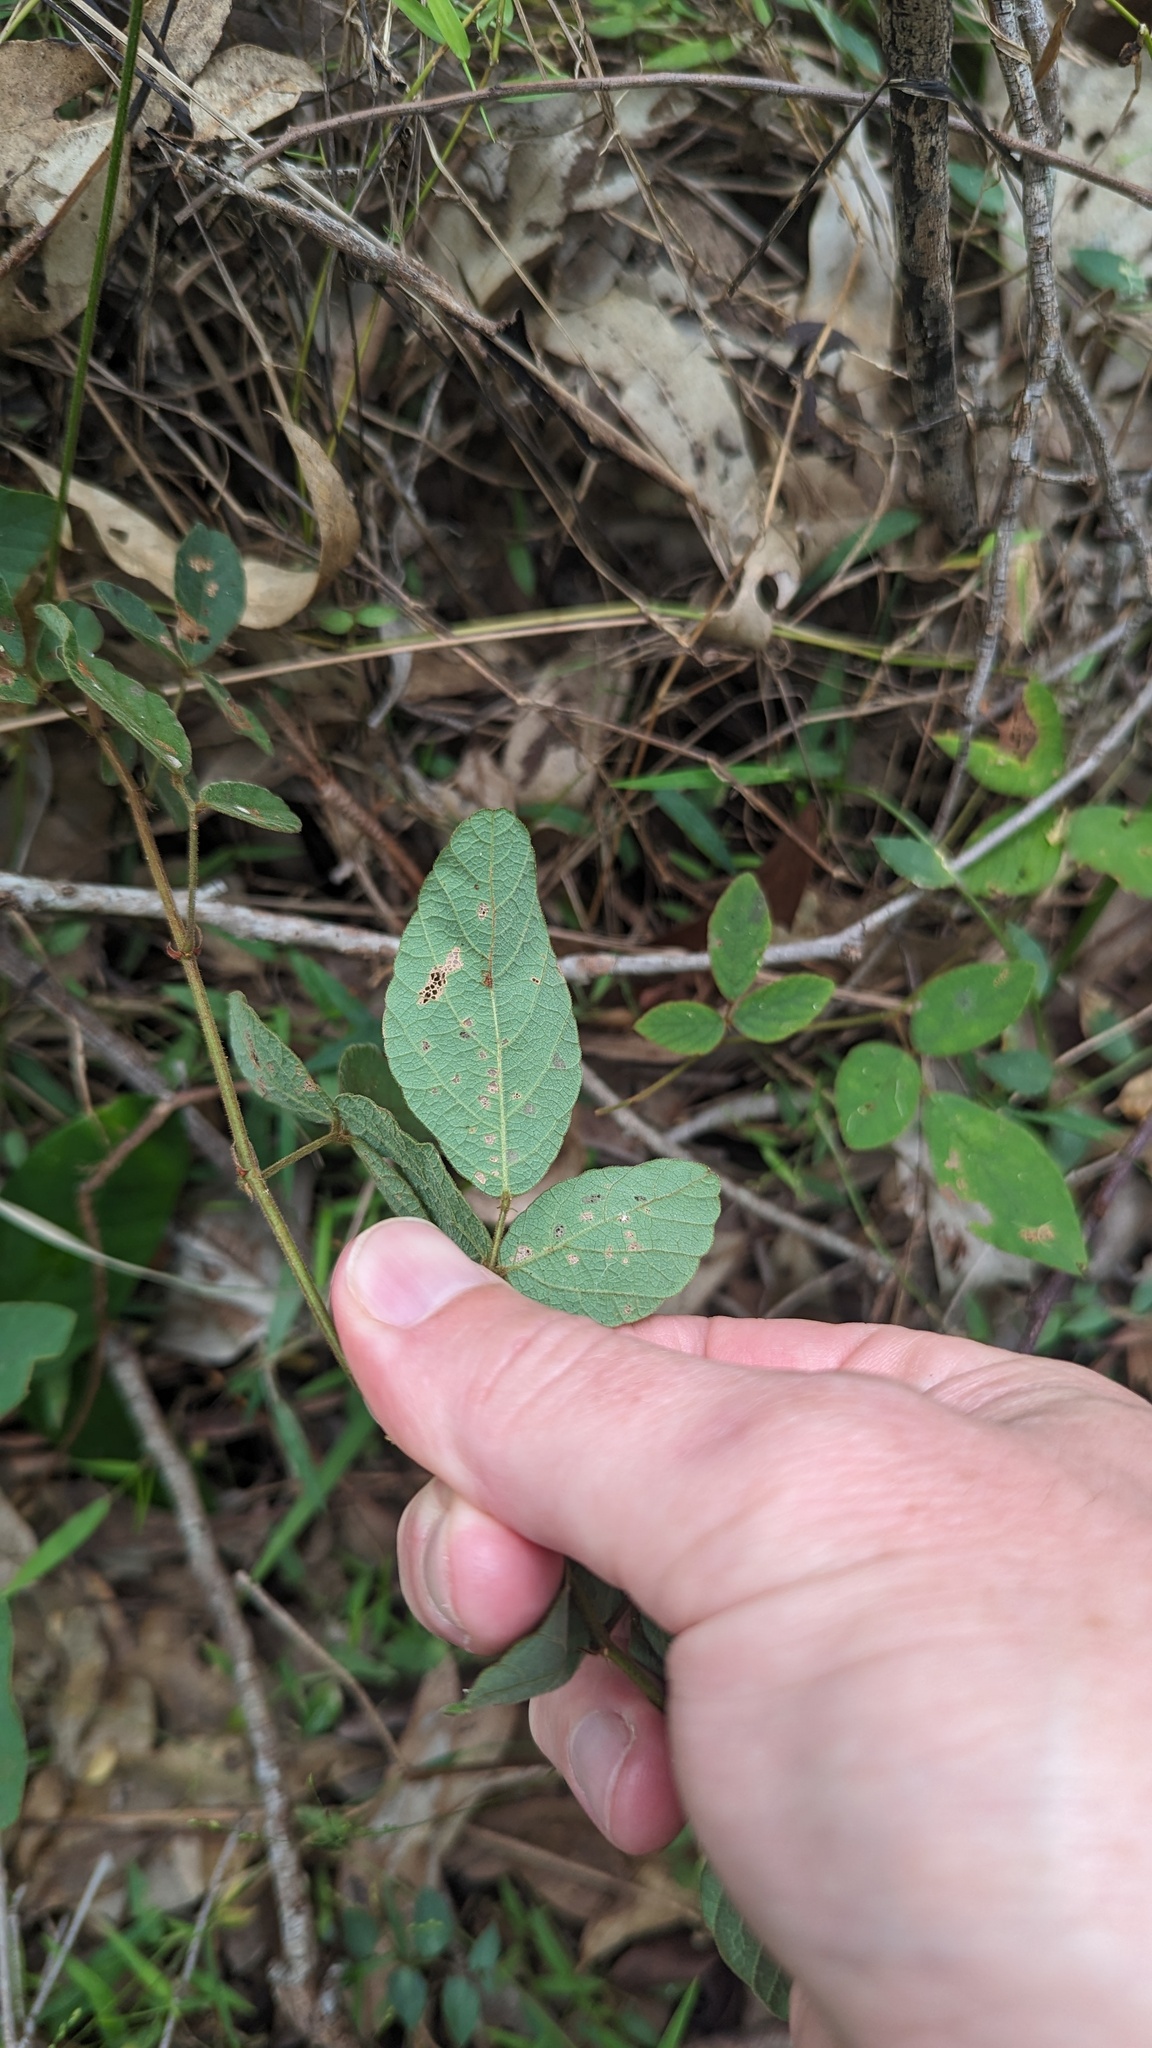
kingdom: Plantae
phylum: Tracheophyta
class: Magnoliopsida
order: Fabales
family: Fabaceae
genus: Maekawaea
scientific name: Maekawaea rhytidophylla
